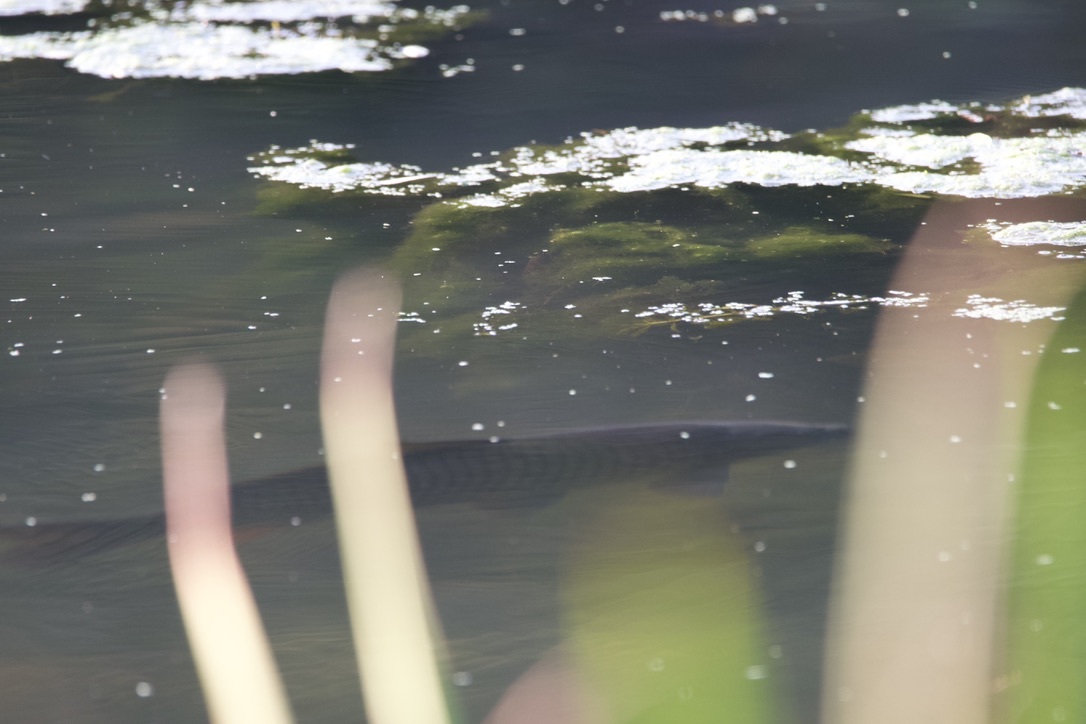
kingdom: Animalia
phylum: Chordata
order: Cypriniformes
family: Cyprinidae
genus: Cyprinus
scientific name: Cyprinus carpio
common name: Common carp
